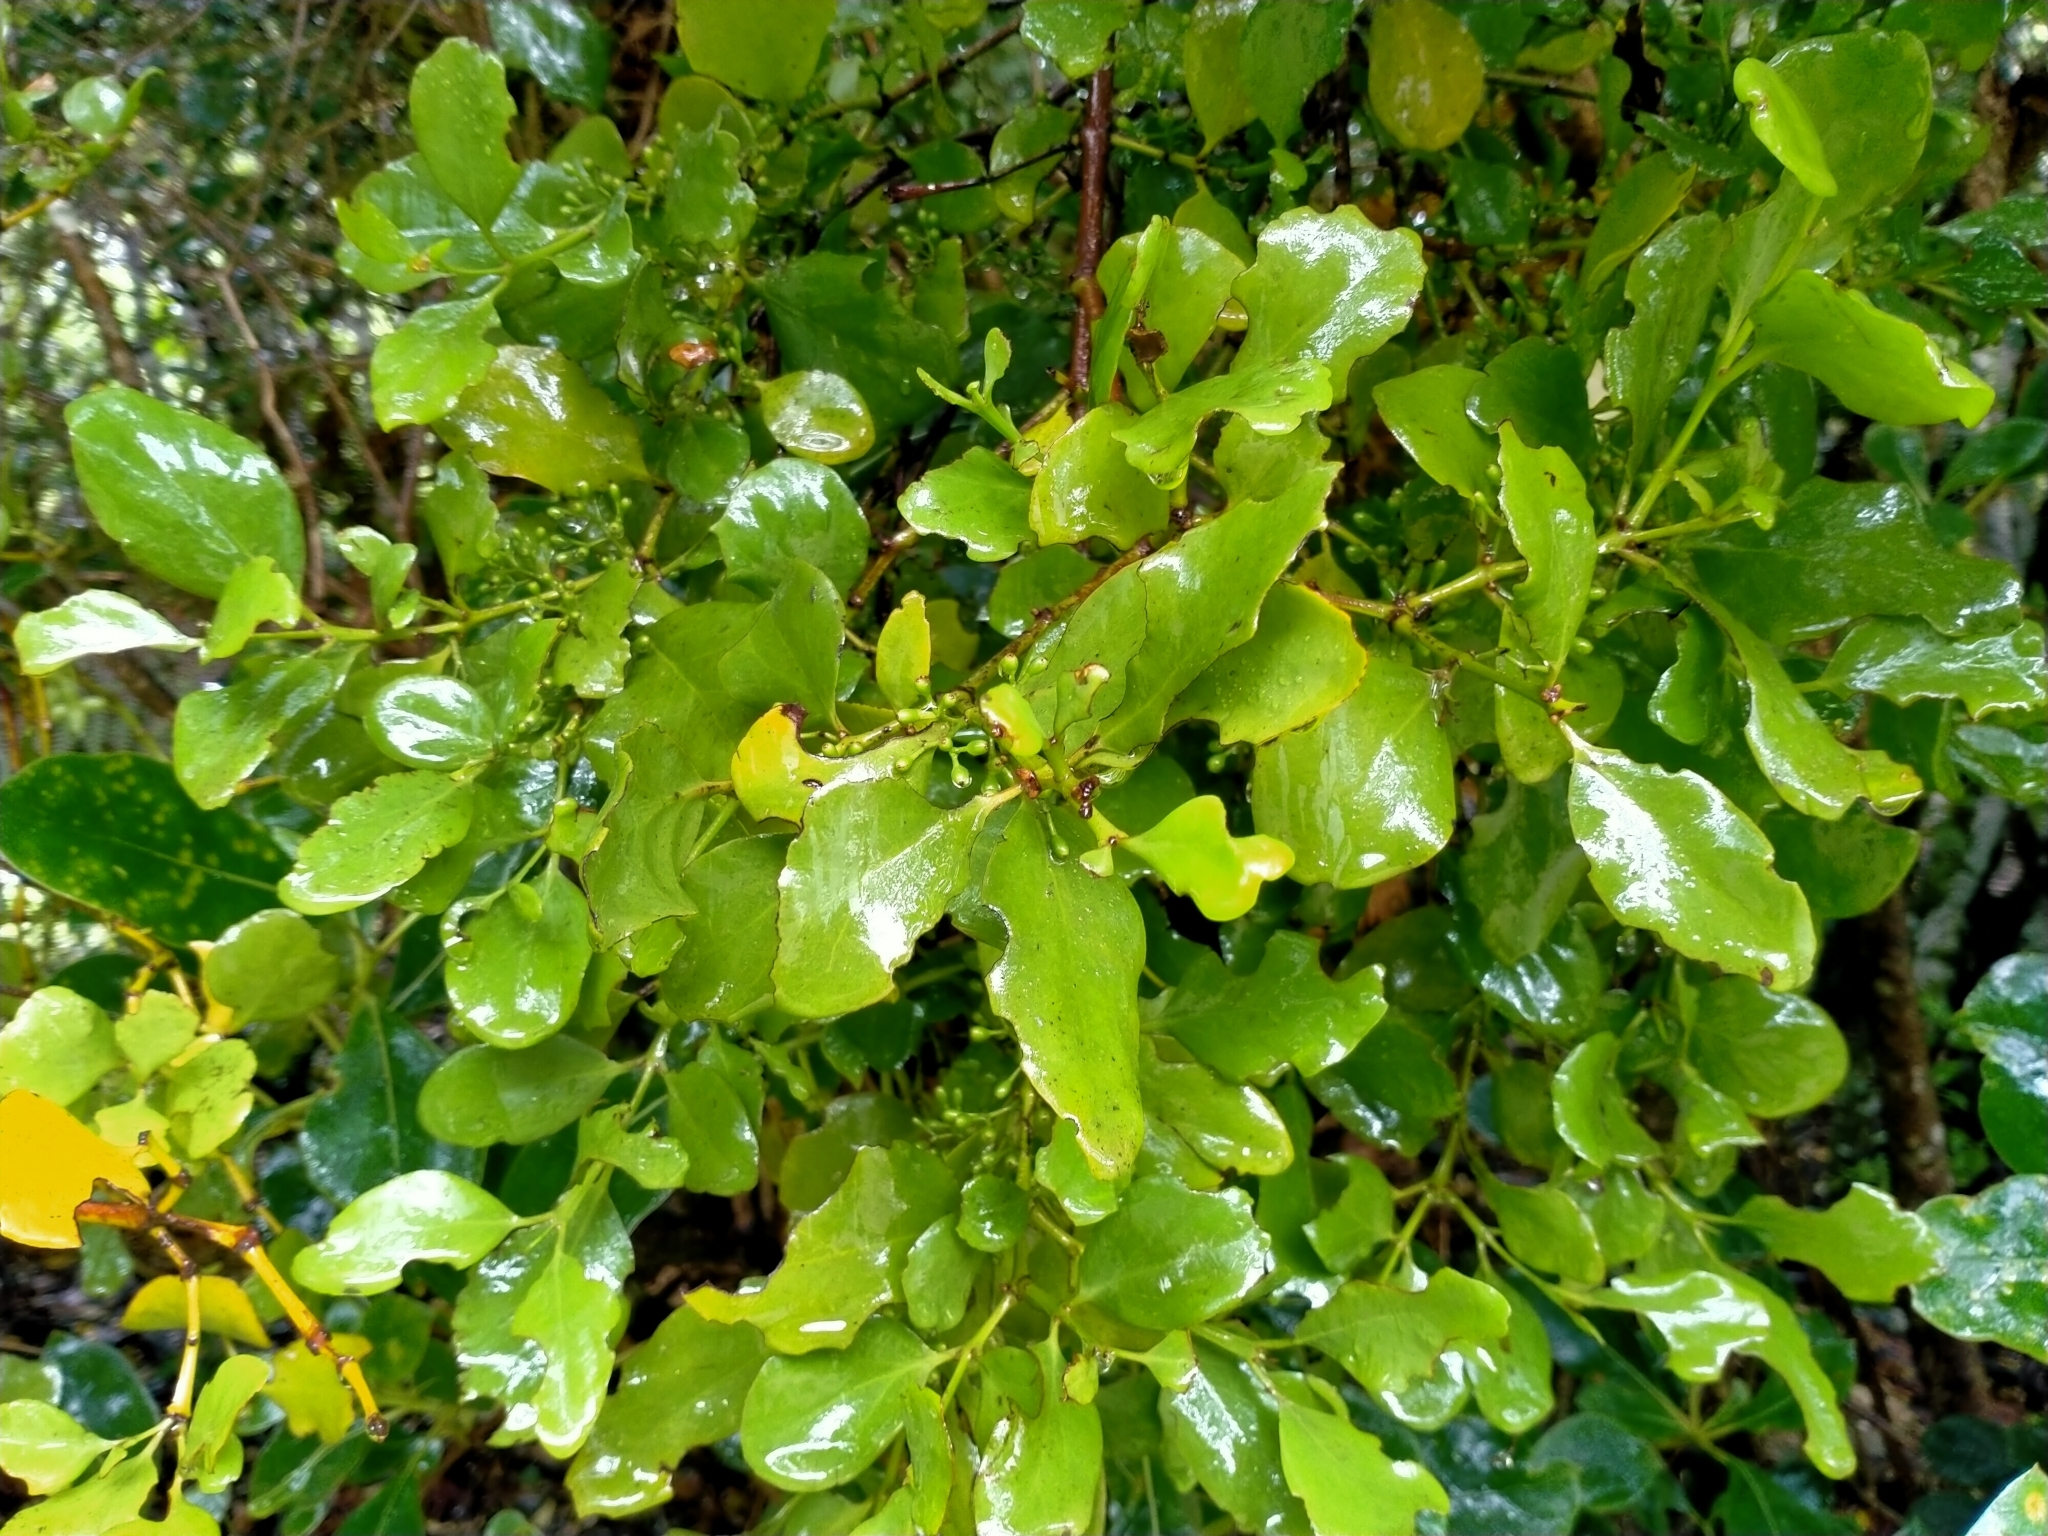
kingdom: Plantae
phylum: Tracheophyta
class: Magnoliopsida
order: Santalales
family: Loranthaceae
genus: Ileostylus
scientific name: Ileostylus micranthus
